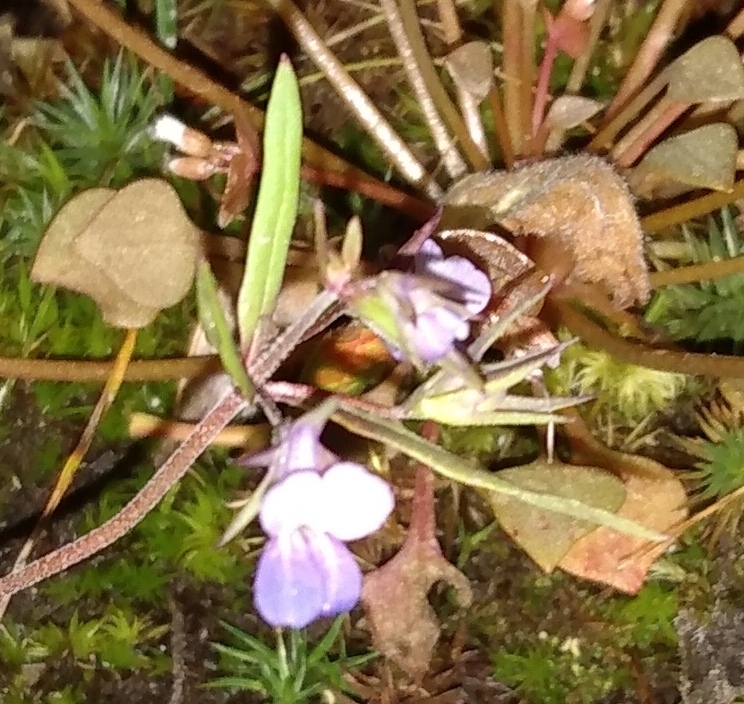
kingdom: Plantae
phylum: Tracheophyta
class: Magnoliopsida
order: Lamiales
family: Plantaginaceae
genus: Collinsia
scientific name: Collinsia parviflora
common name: Blue-lips
